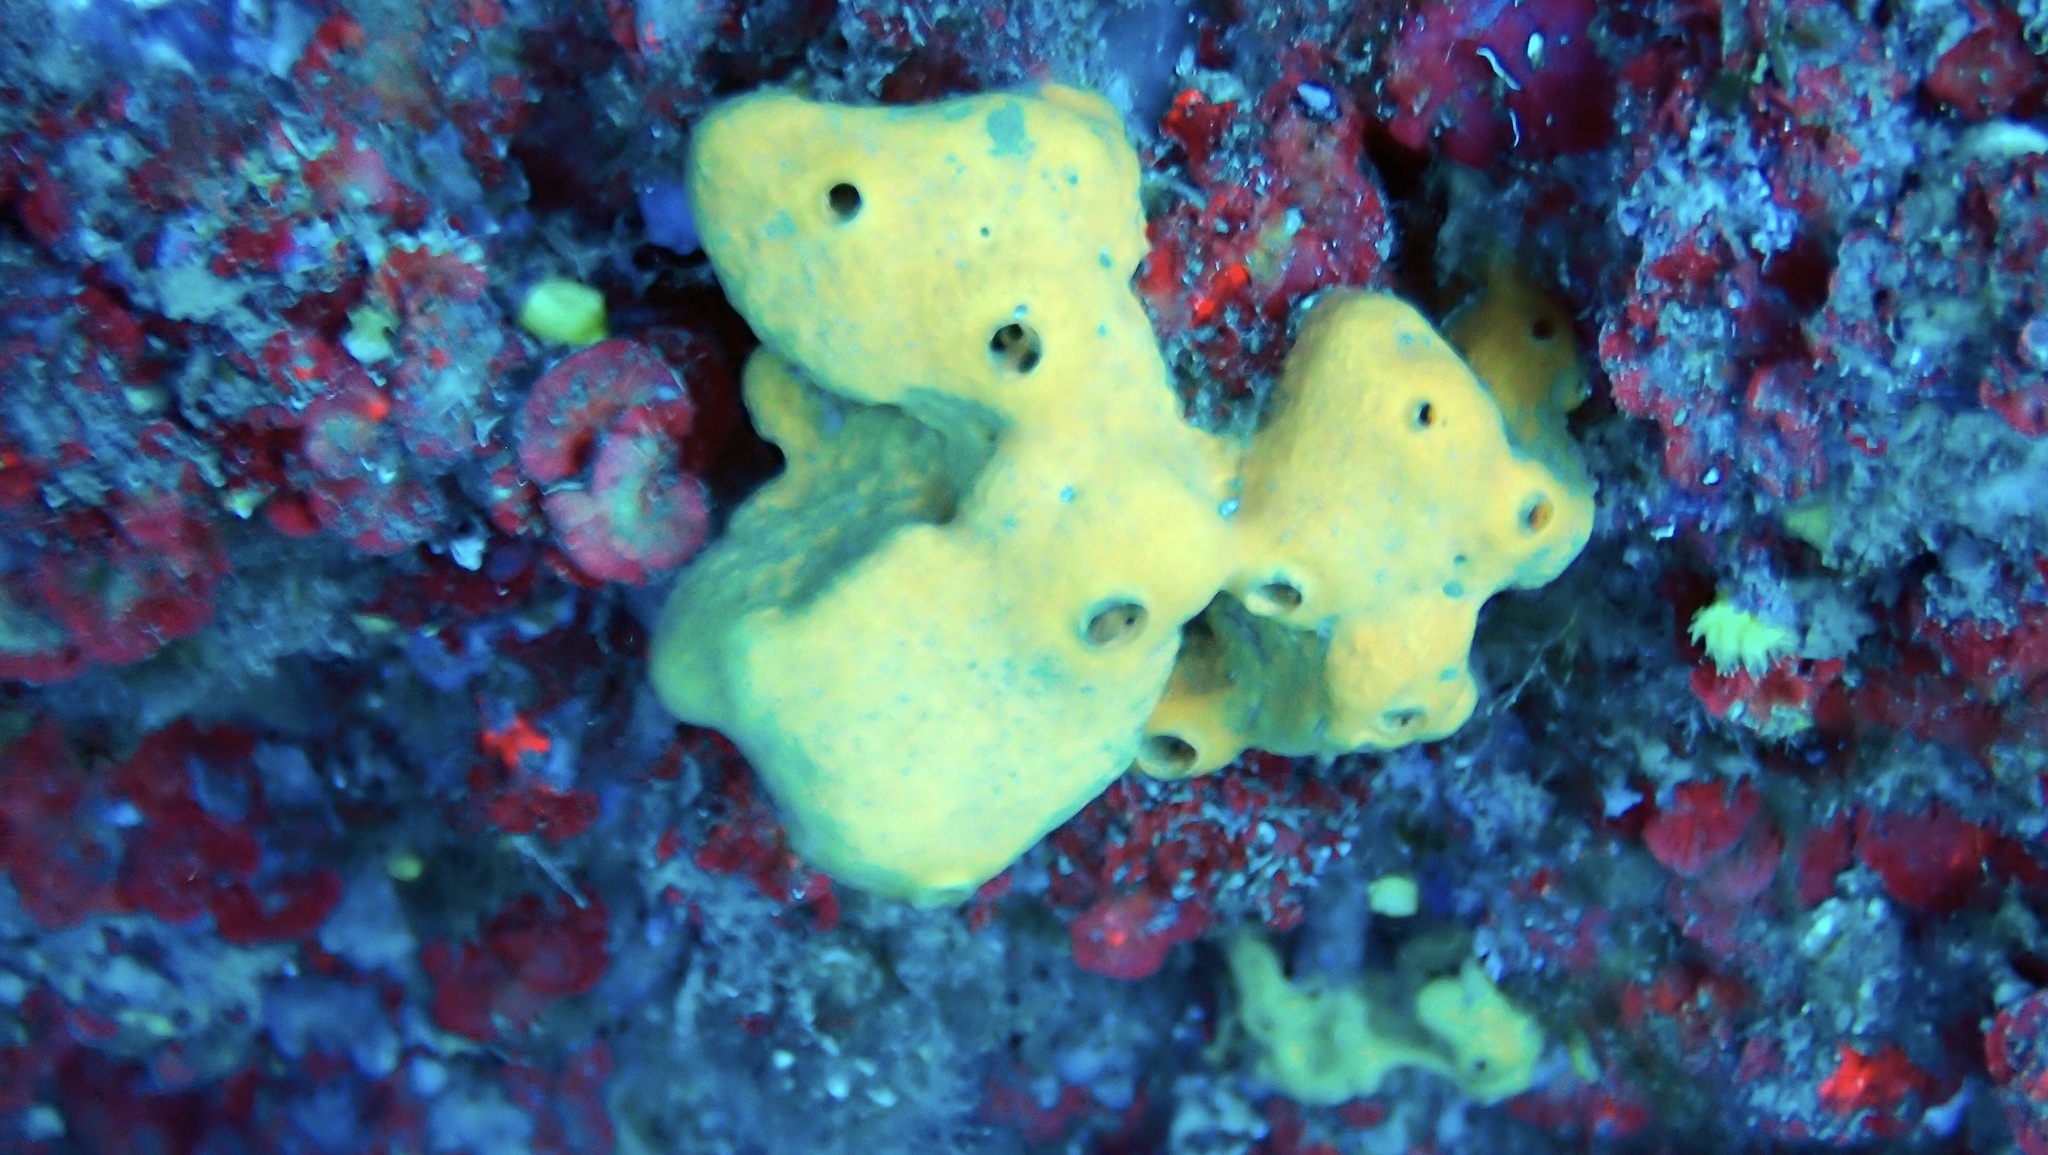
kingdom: Animalia
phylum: Porifera
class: Demospongiae
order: Agelasida
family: Agelasidae
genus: Agelas
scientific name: Agelas oroides
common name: Maltese sponge
